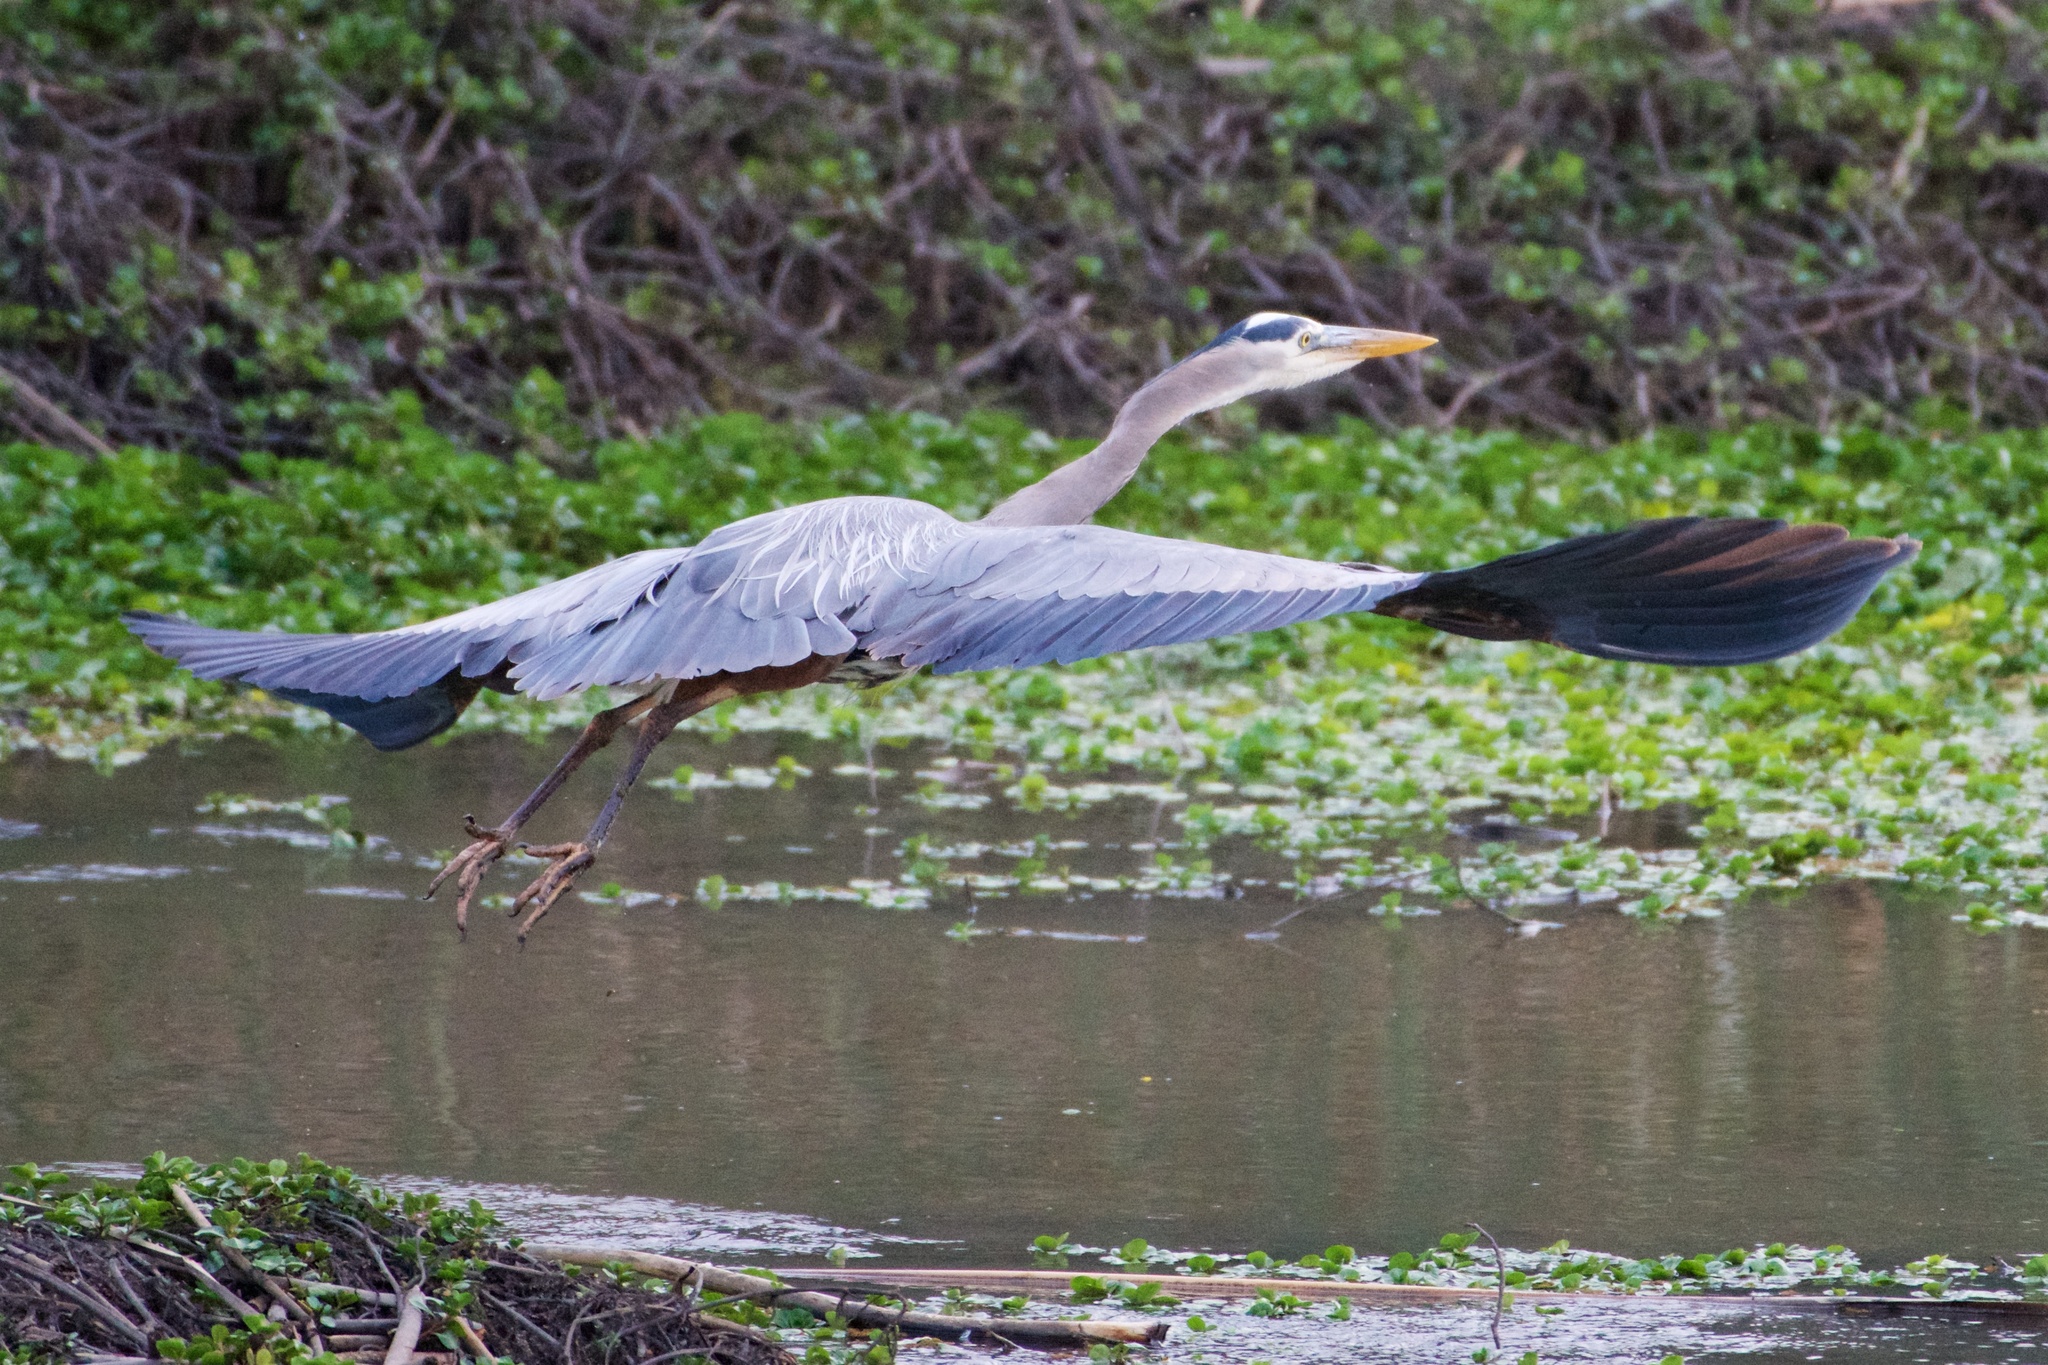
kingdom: Animalia
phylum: Chordata
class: Aves
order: Pelecaniformes
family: Ardeidae
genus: Ardea
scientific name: Ardea herodias
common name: Great blue heron
